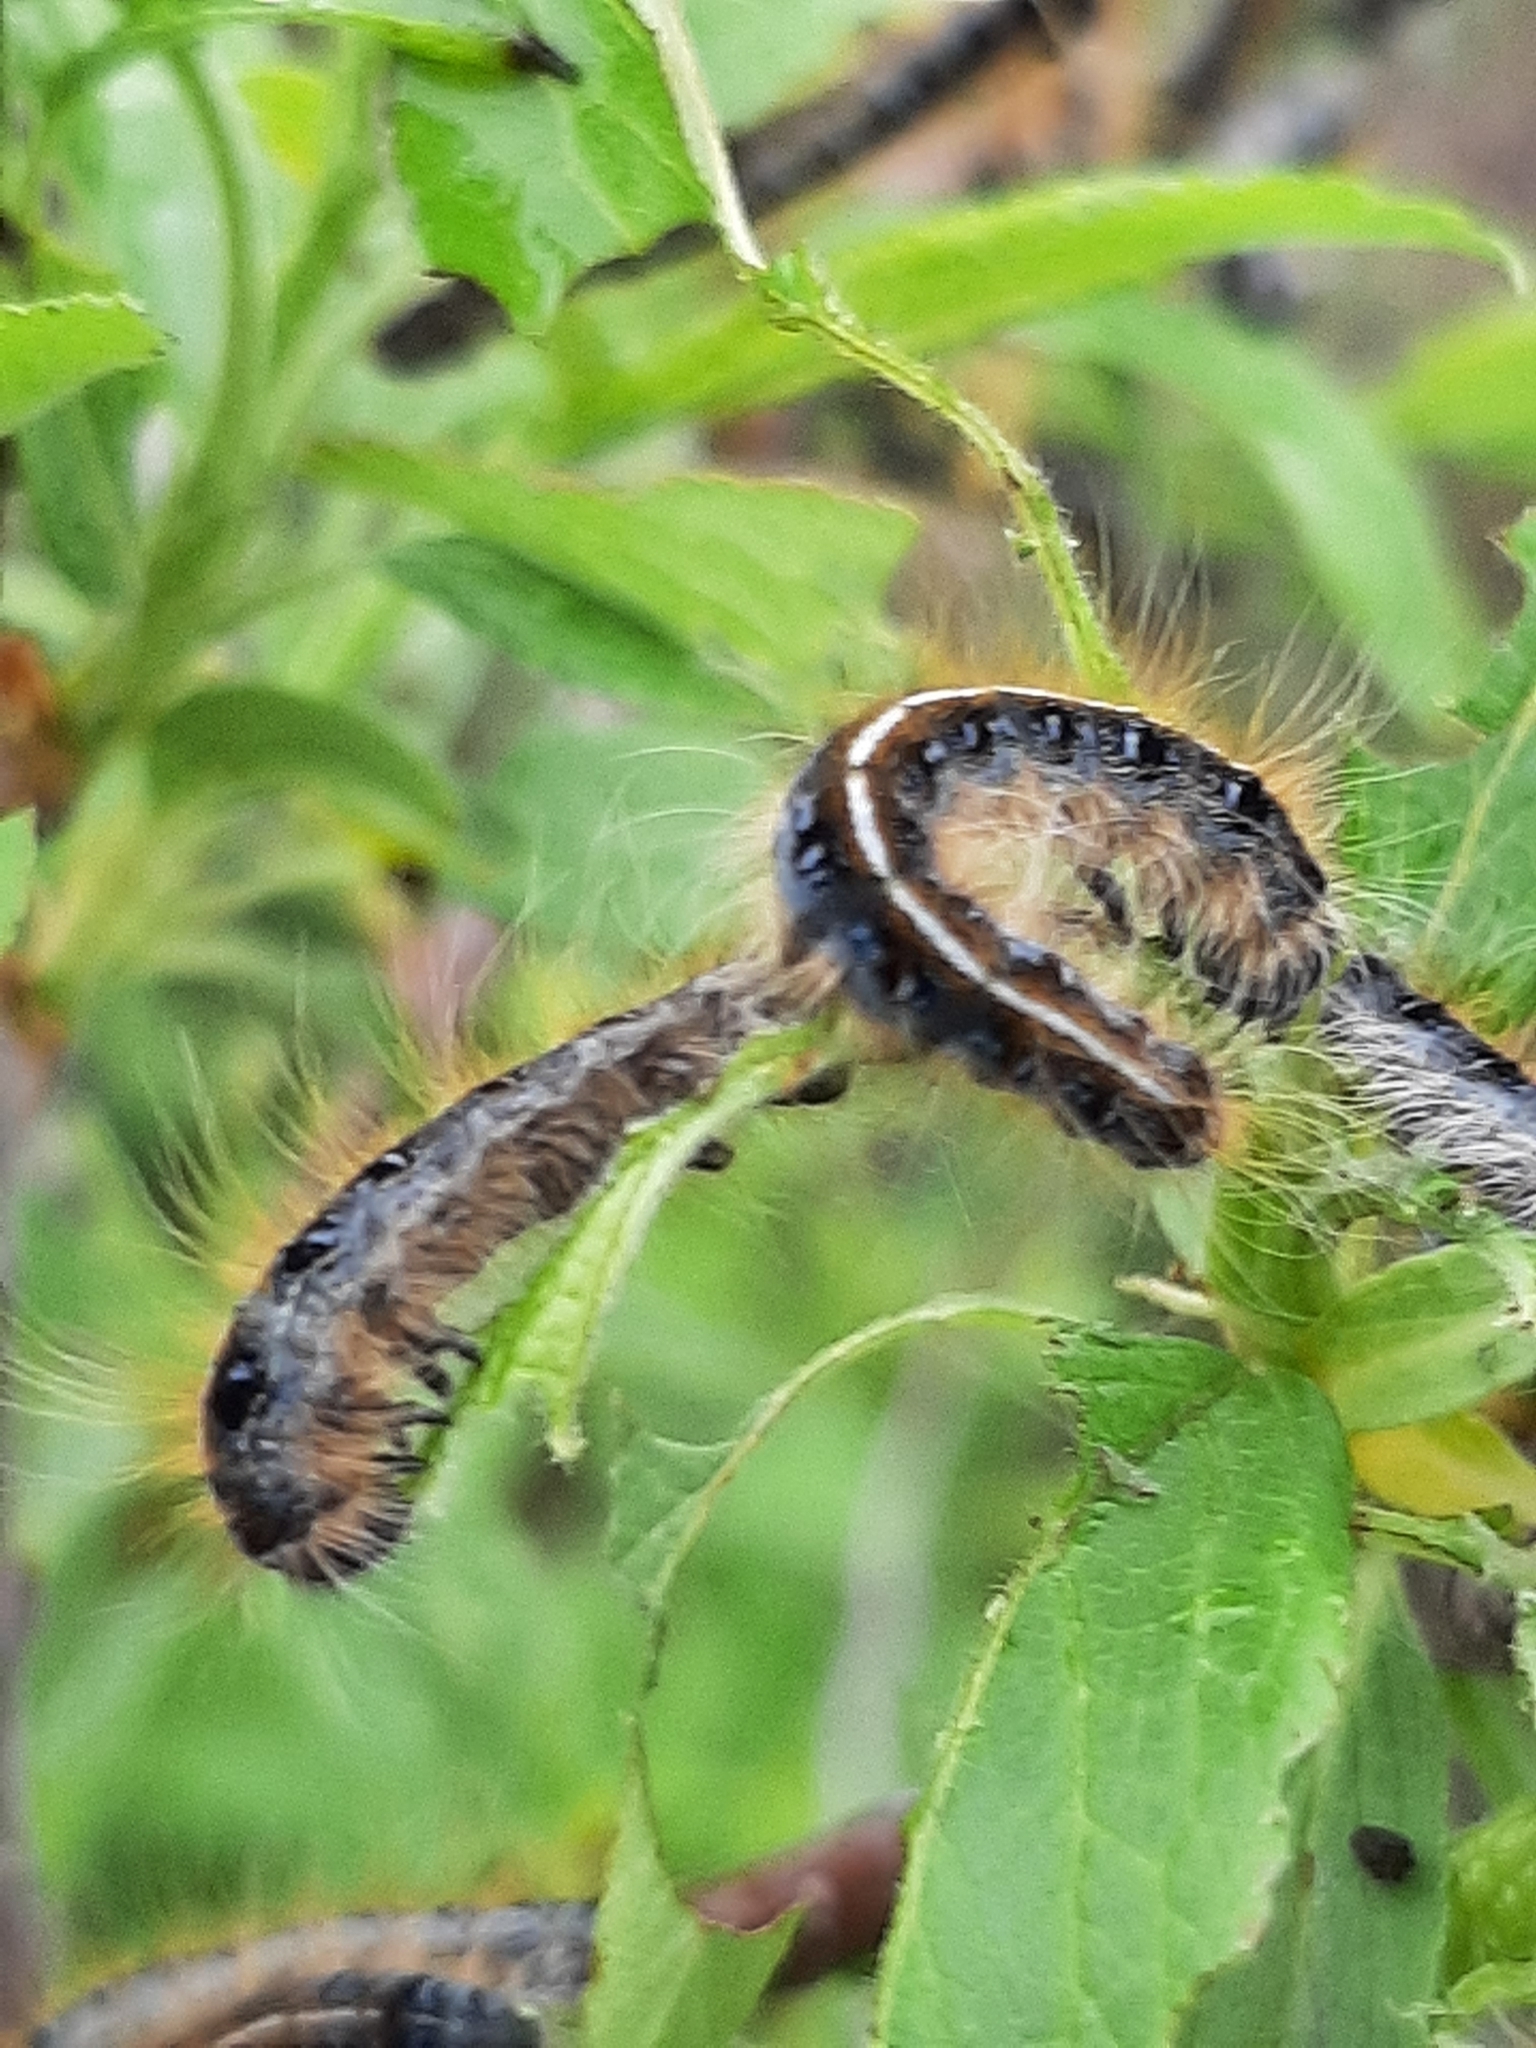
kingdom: Animalia
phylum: Arthropoda
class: Insecta
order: Lepidoptera
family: Lasiocampidae
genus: Malacosoma
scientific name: Malacosoma americana
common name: Eastern tent caterpillar moth
